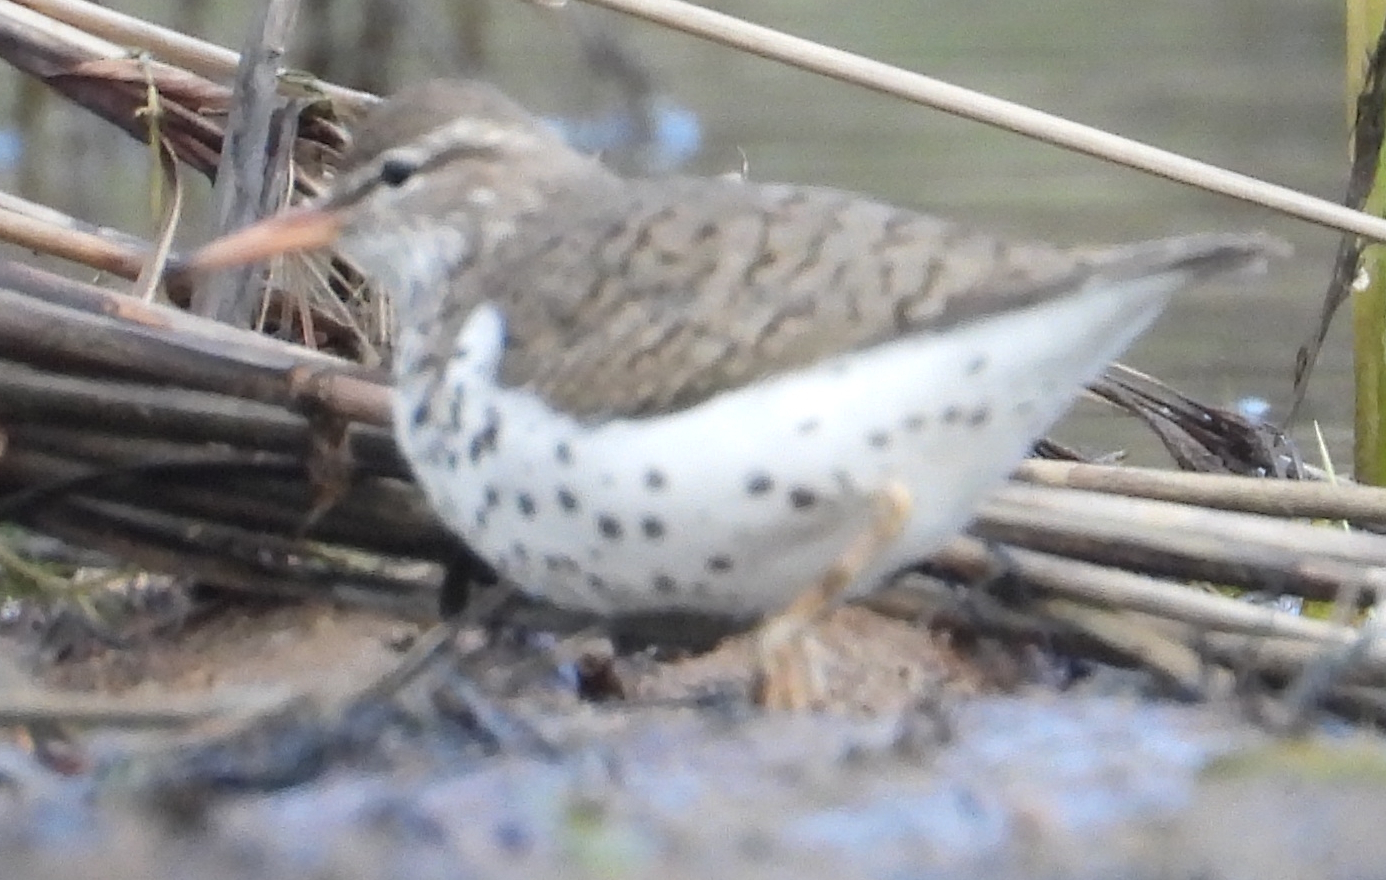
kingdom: Animalia
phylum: Chordata
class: Aves
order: Charadriiformes
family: Scolopacidae
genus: Actitis
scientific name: Actitis macularius
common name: Spotted sandpiper
